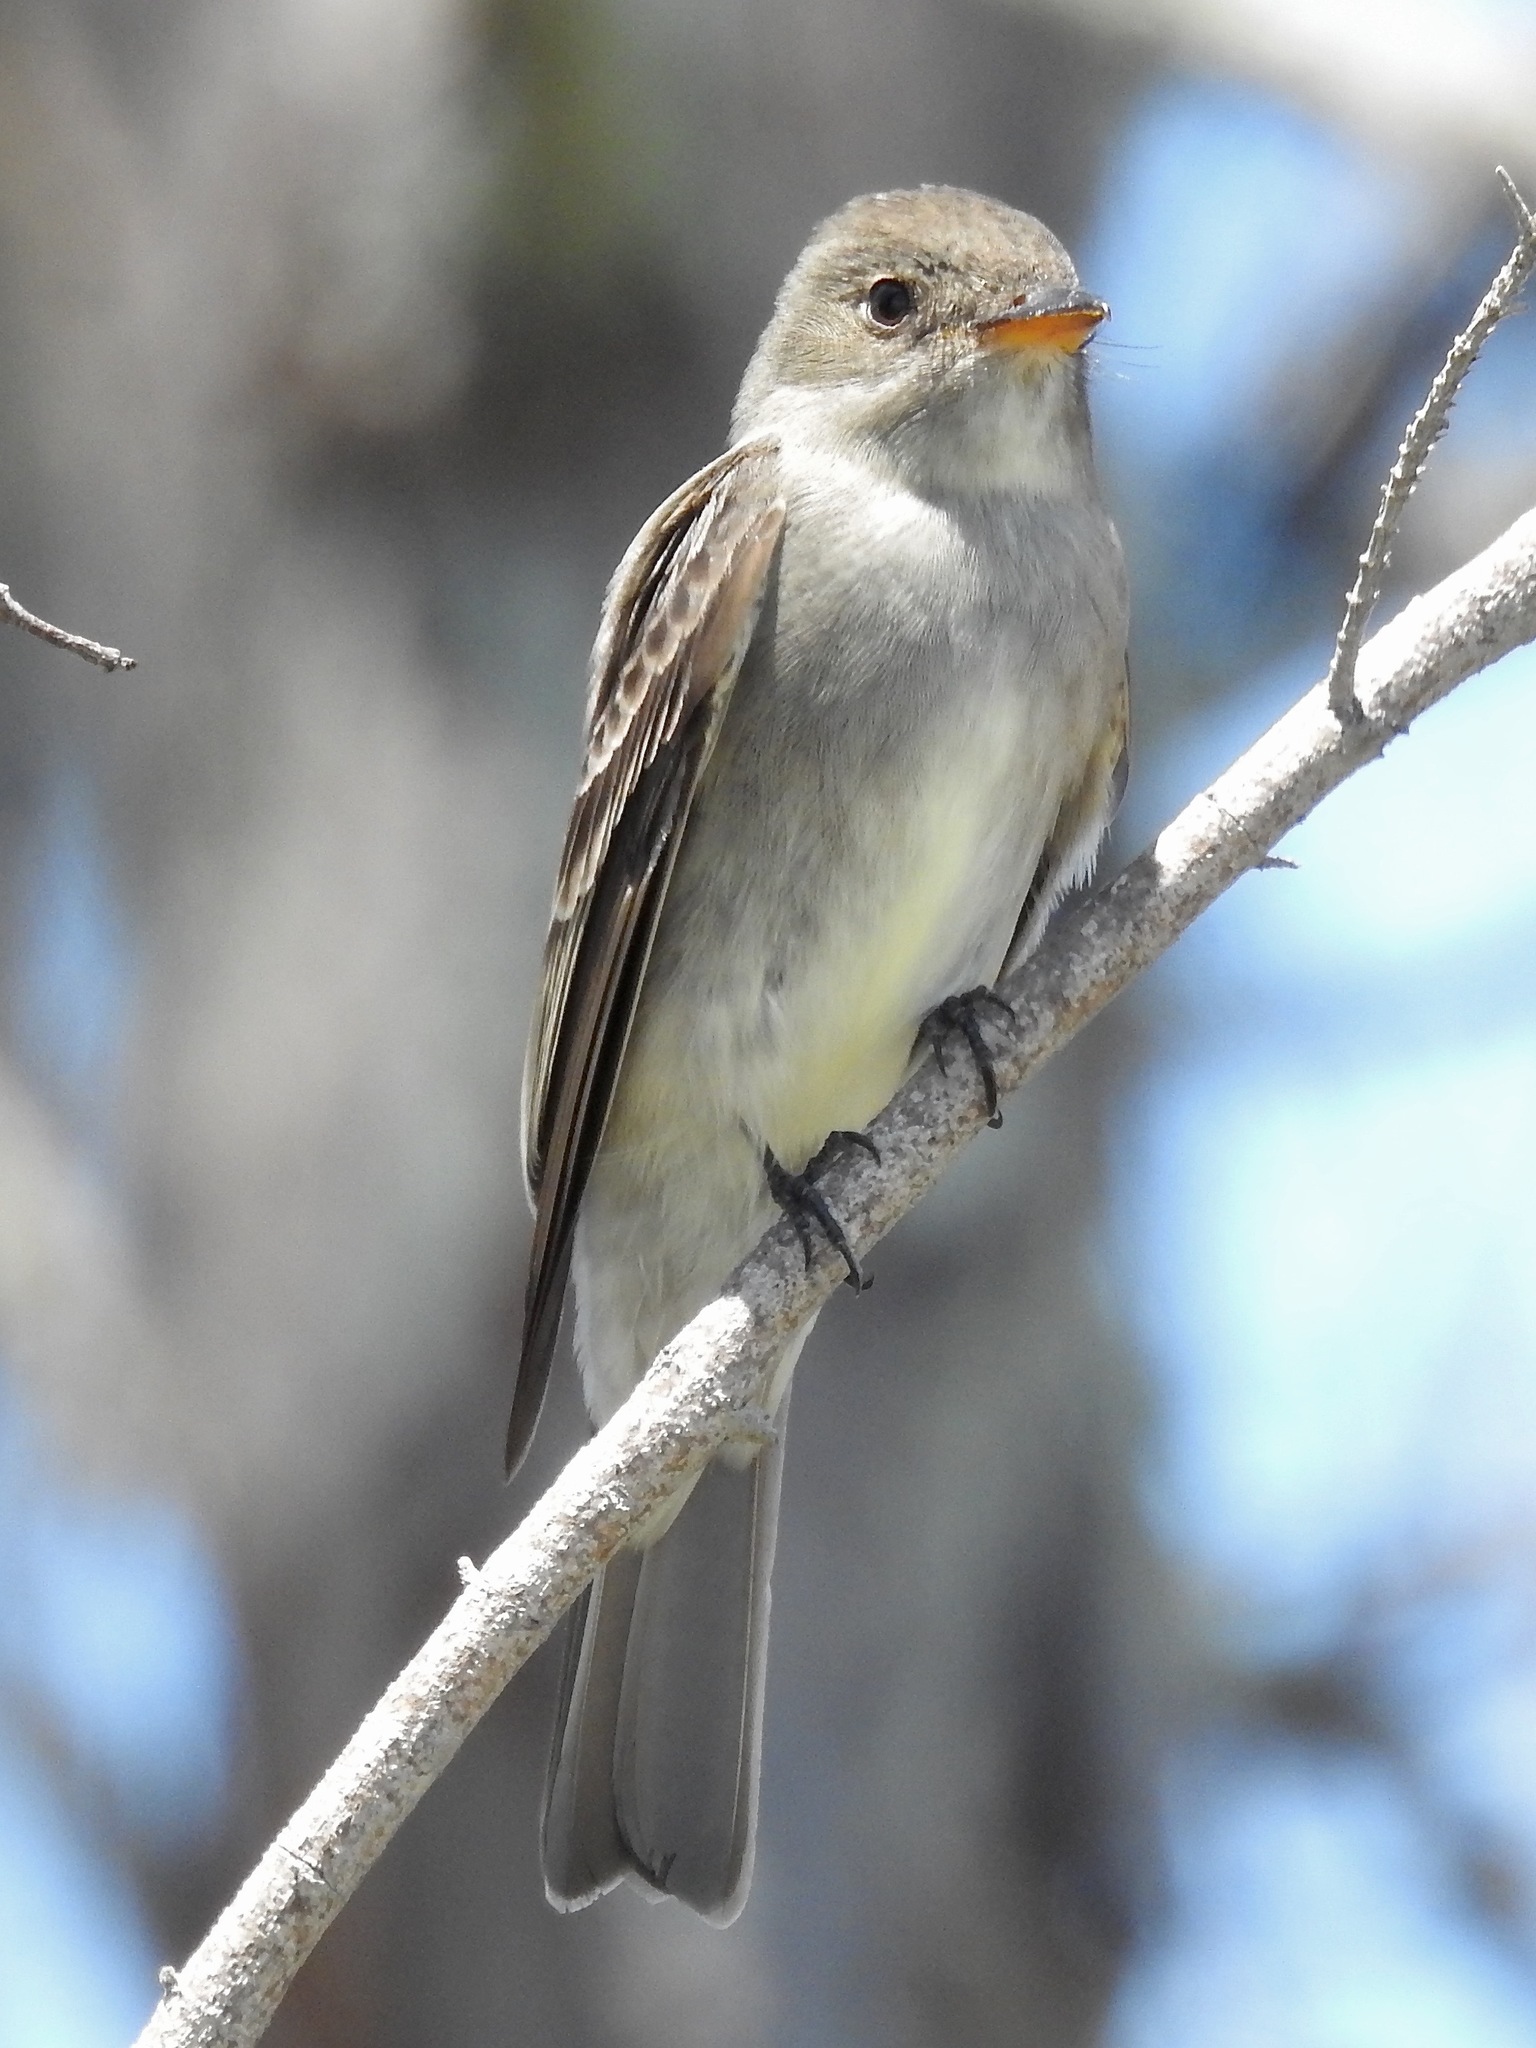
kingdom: Animalia
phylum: Chordata
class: Aves
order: Passeriformes
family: Tyrannidae
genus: Contopus
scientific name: Contopus virens
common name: Eastern wood-pewee
